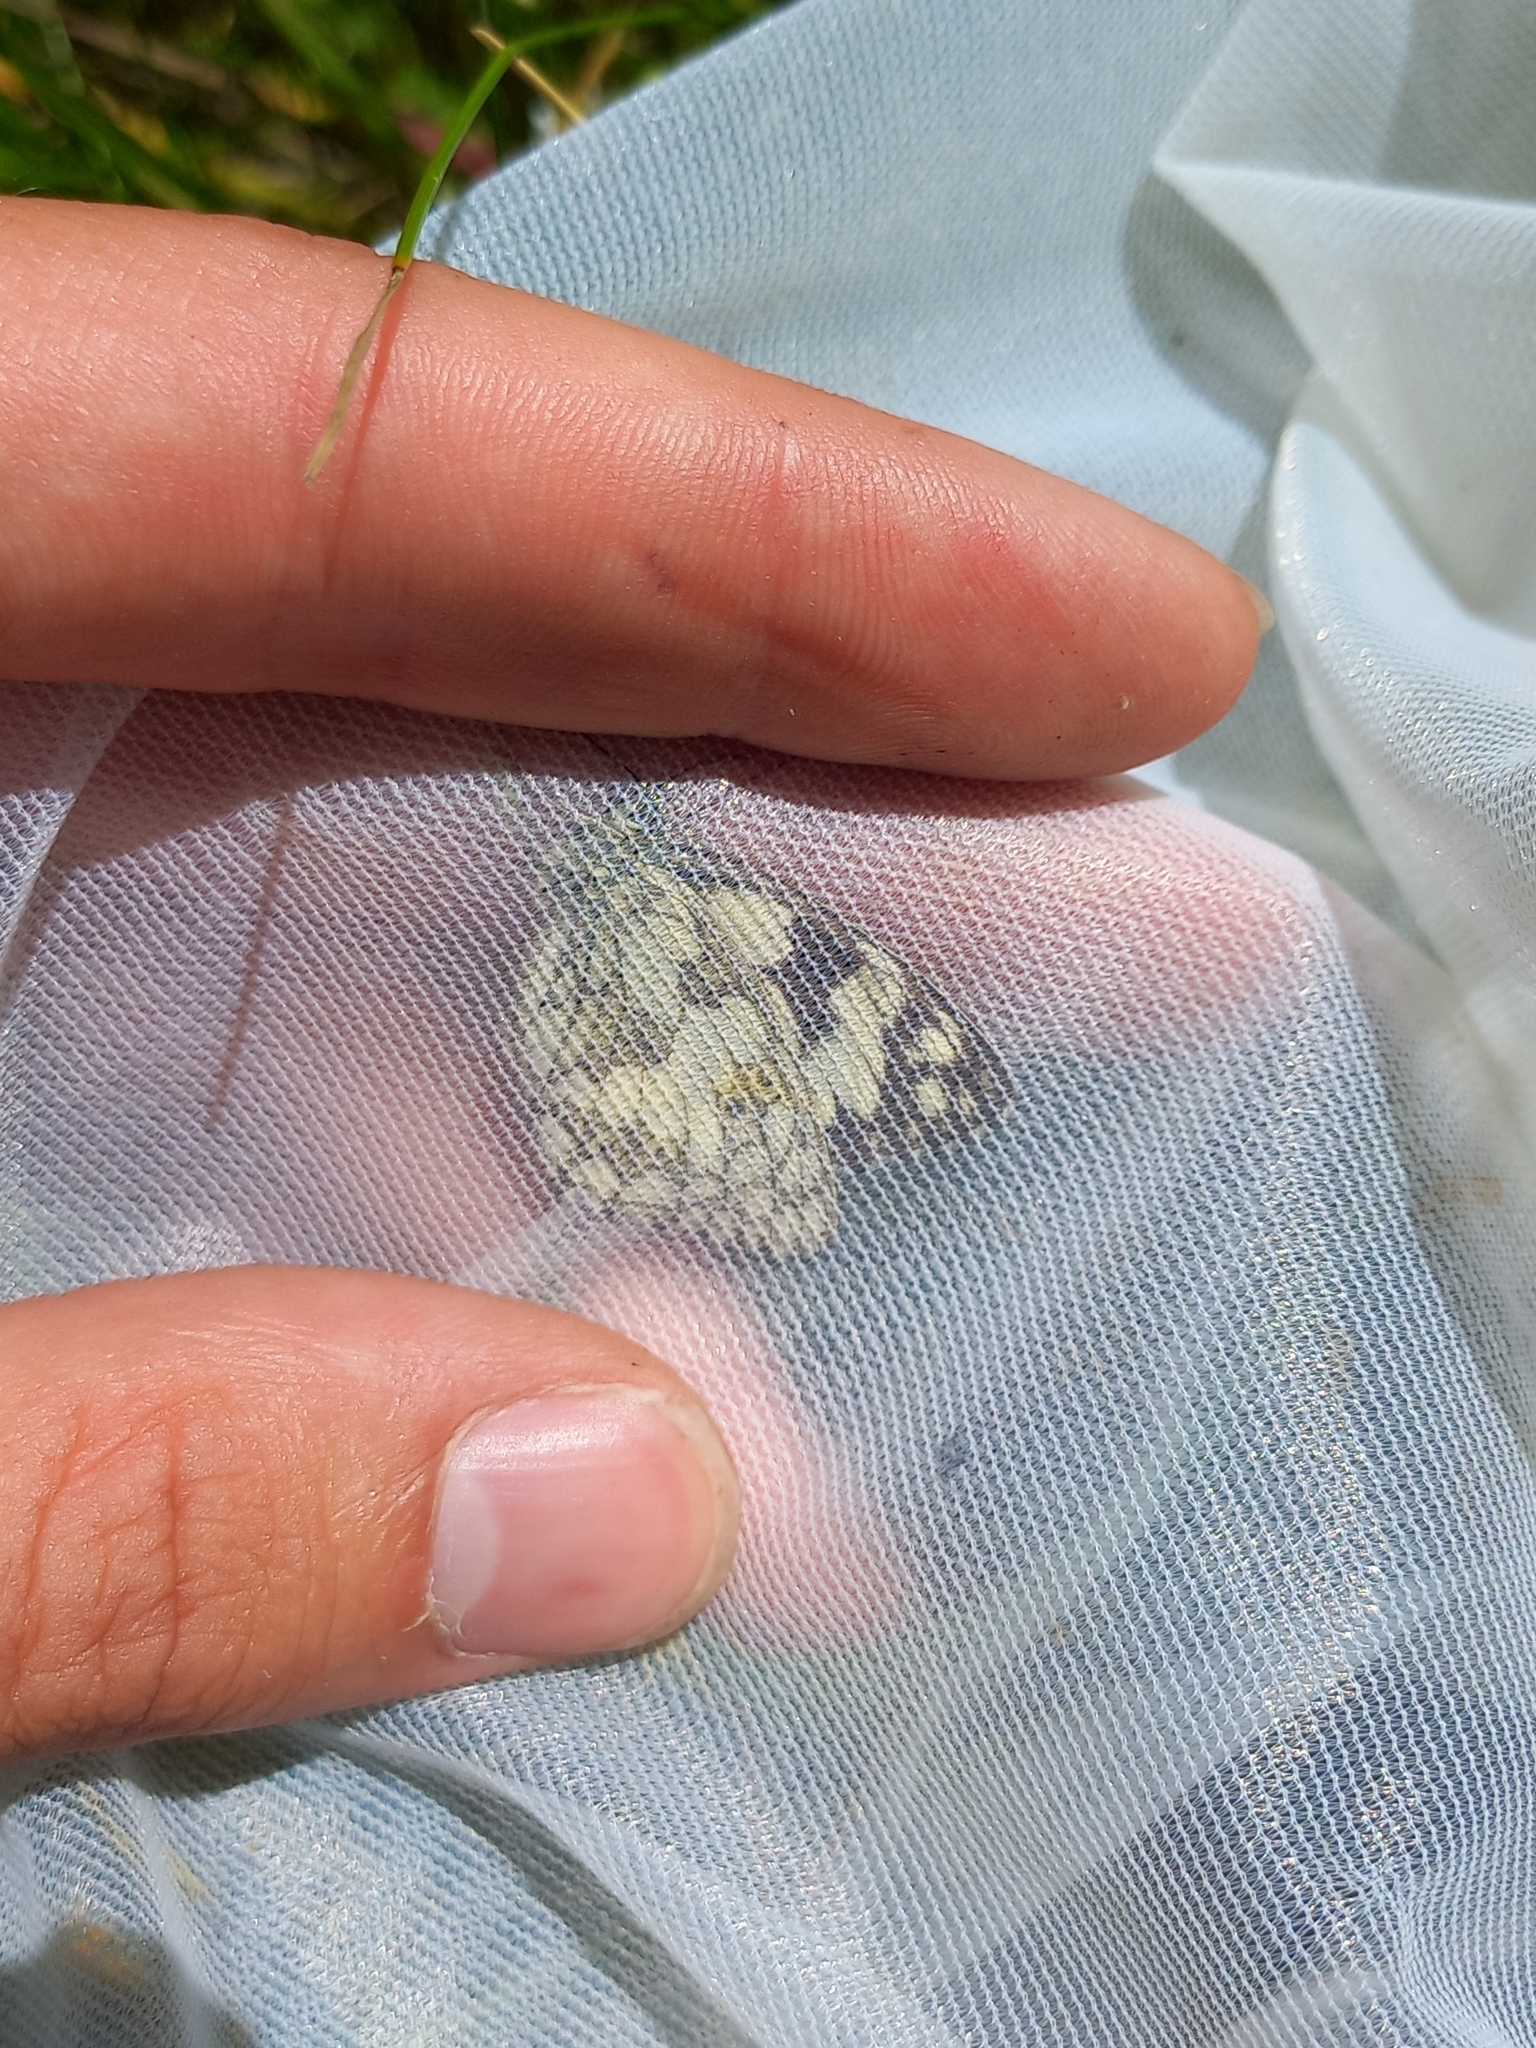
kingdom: Animalia
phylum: Arthropoda
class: Insecta
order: Lepidoptera
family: Nymphalidae
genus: Melanargia
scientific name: Melanargia galathea
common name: Marbled white
